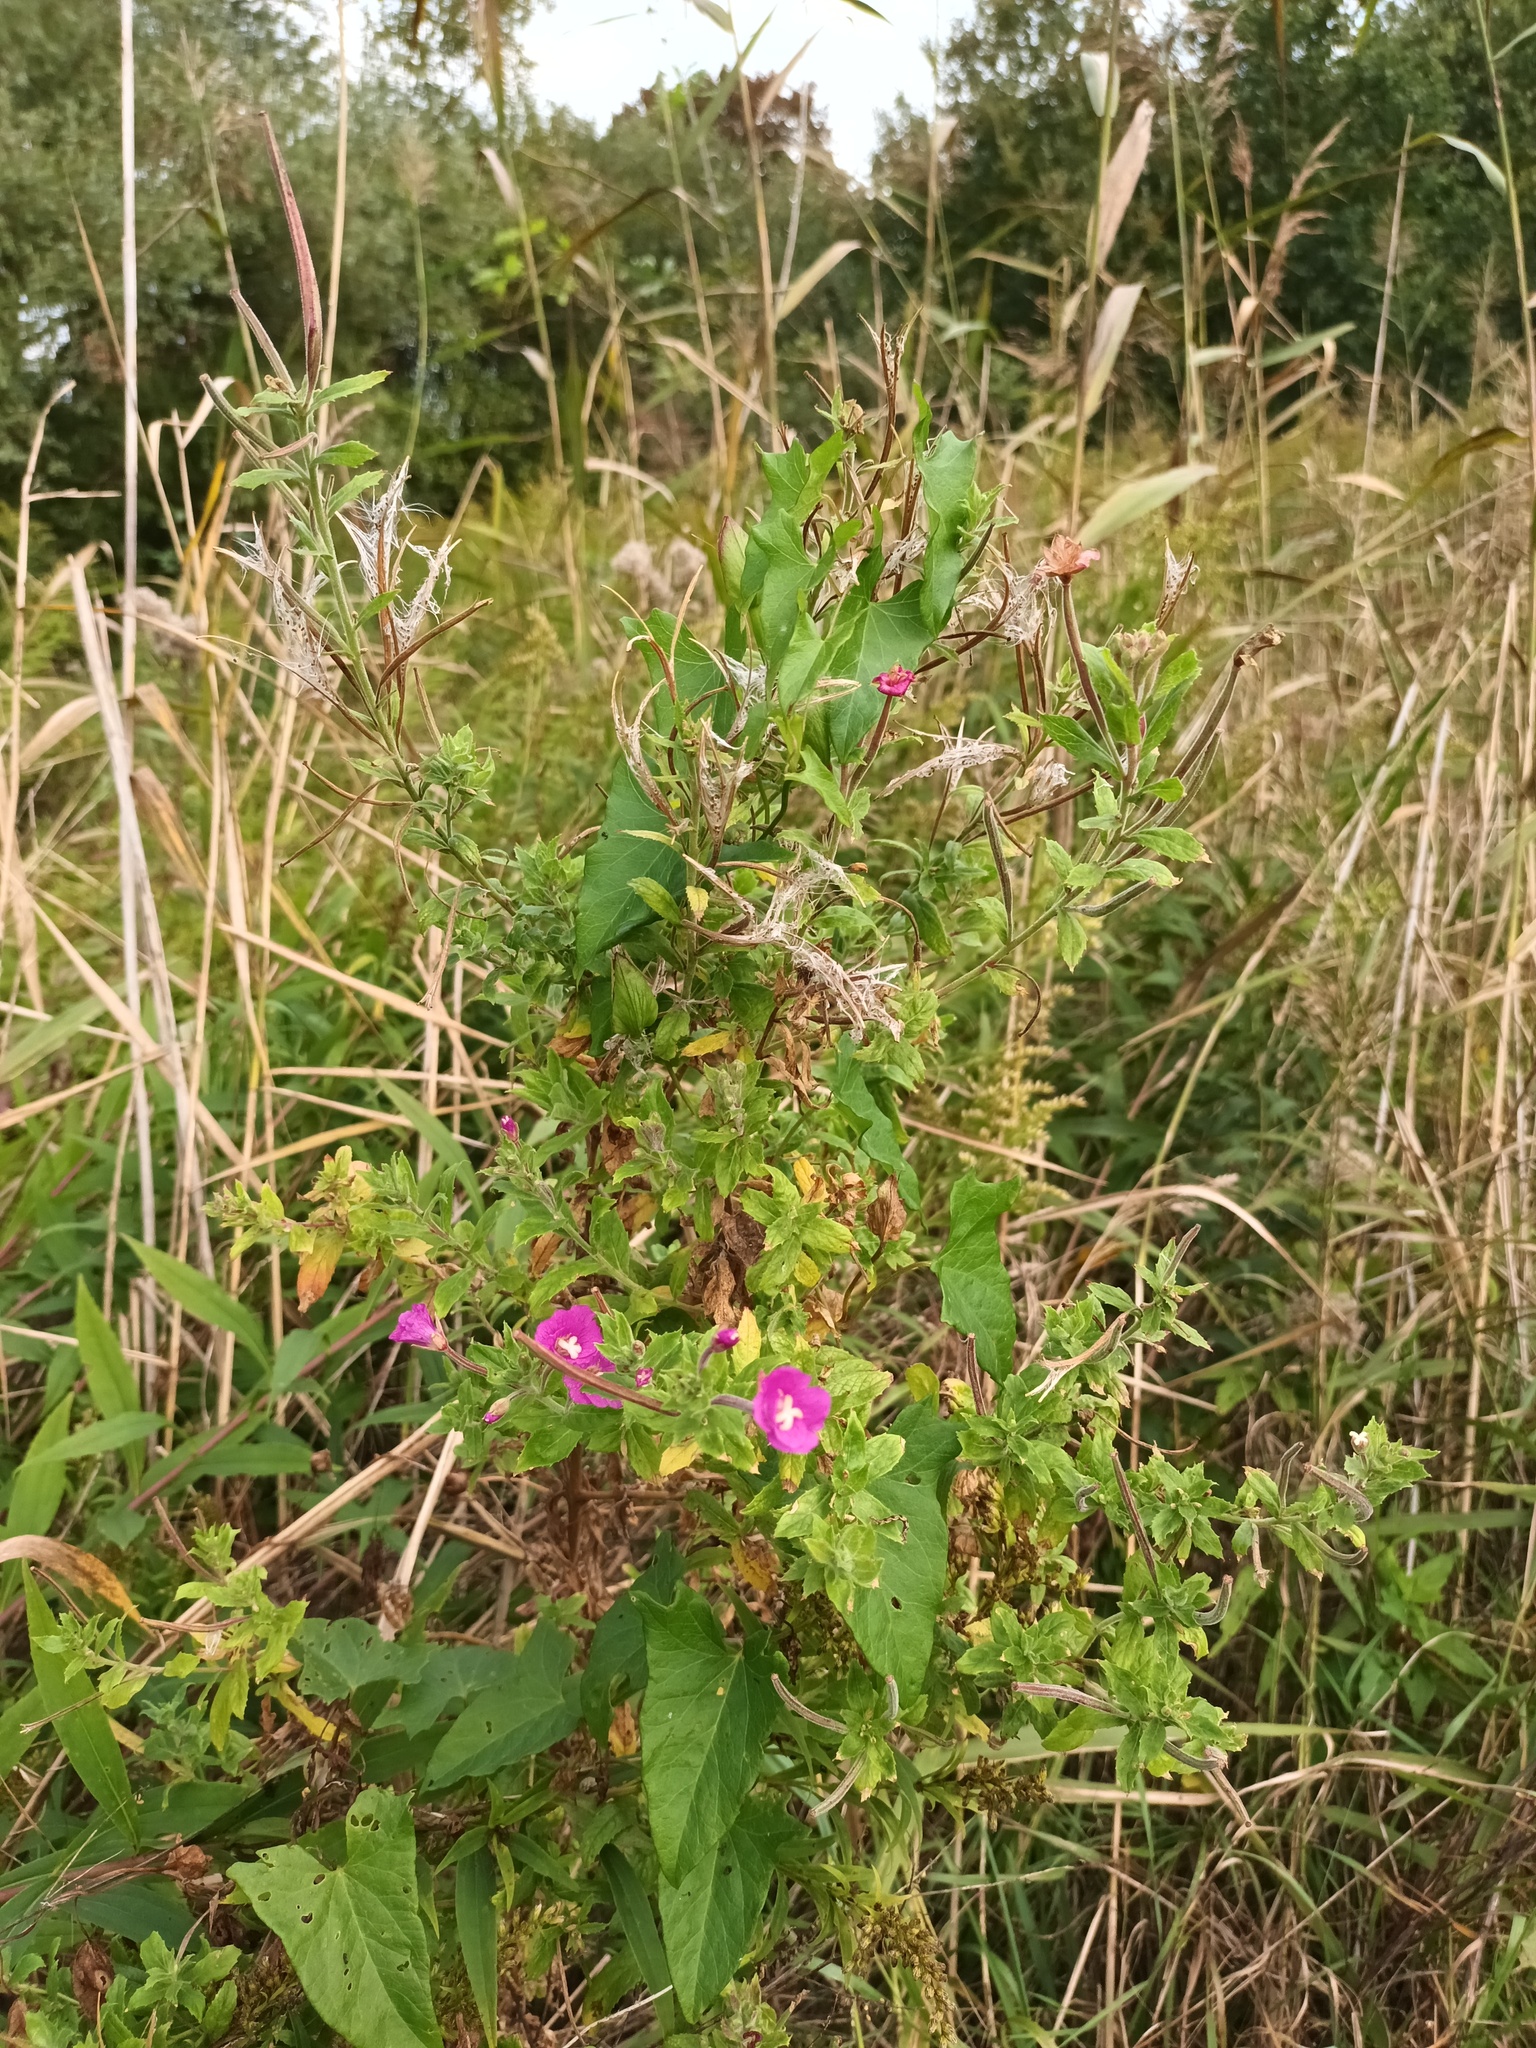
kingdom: Plantae
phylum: Tracheophyta
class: Magnoliopsida
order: Myrtales
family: Onagraceae
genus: Epilobium
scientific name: Epilobium hirsutum
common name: Great willowherb
